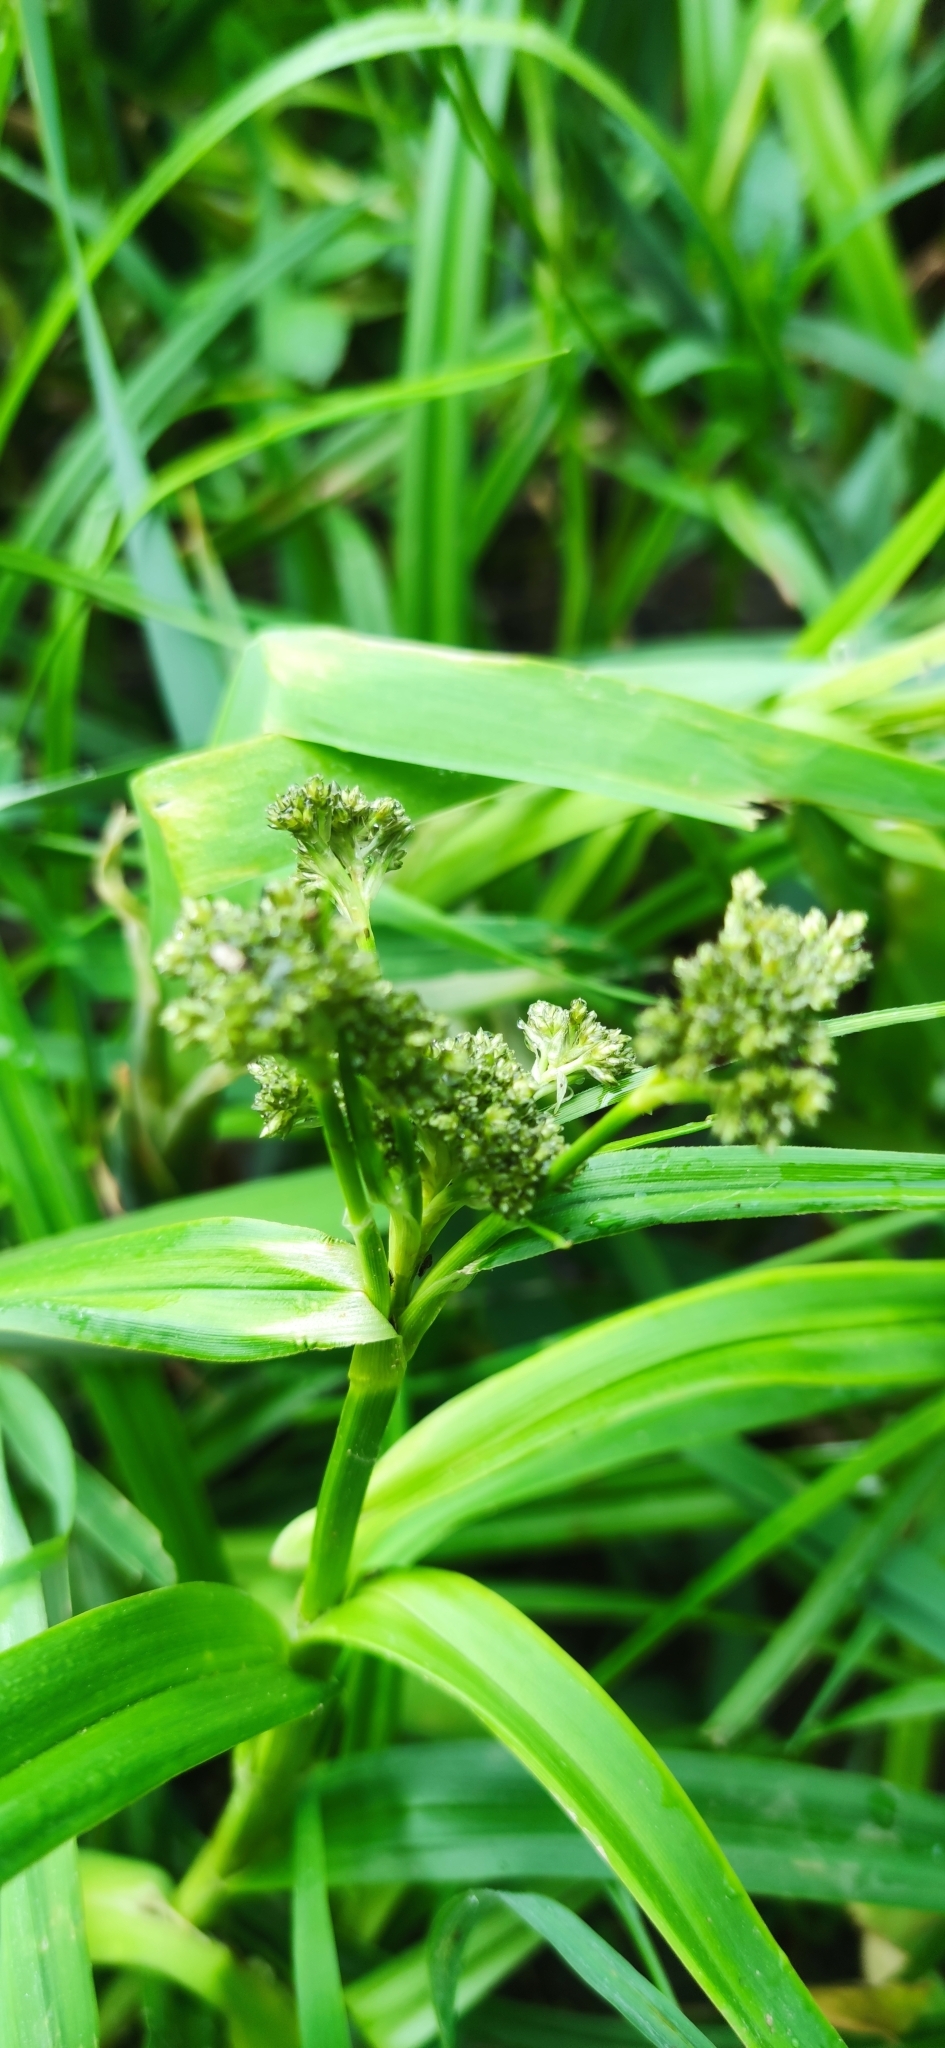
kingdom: Plantae
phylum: Tracheophyta
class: Liliopsida
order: Poales
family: Cyperaceae
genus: Scirpus
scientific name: Scirpus sylvaticus
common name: Wood club-rush
